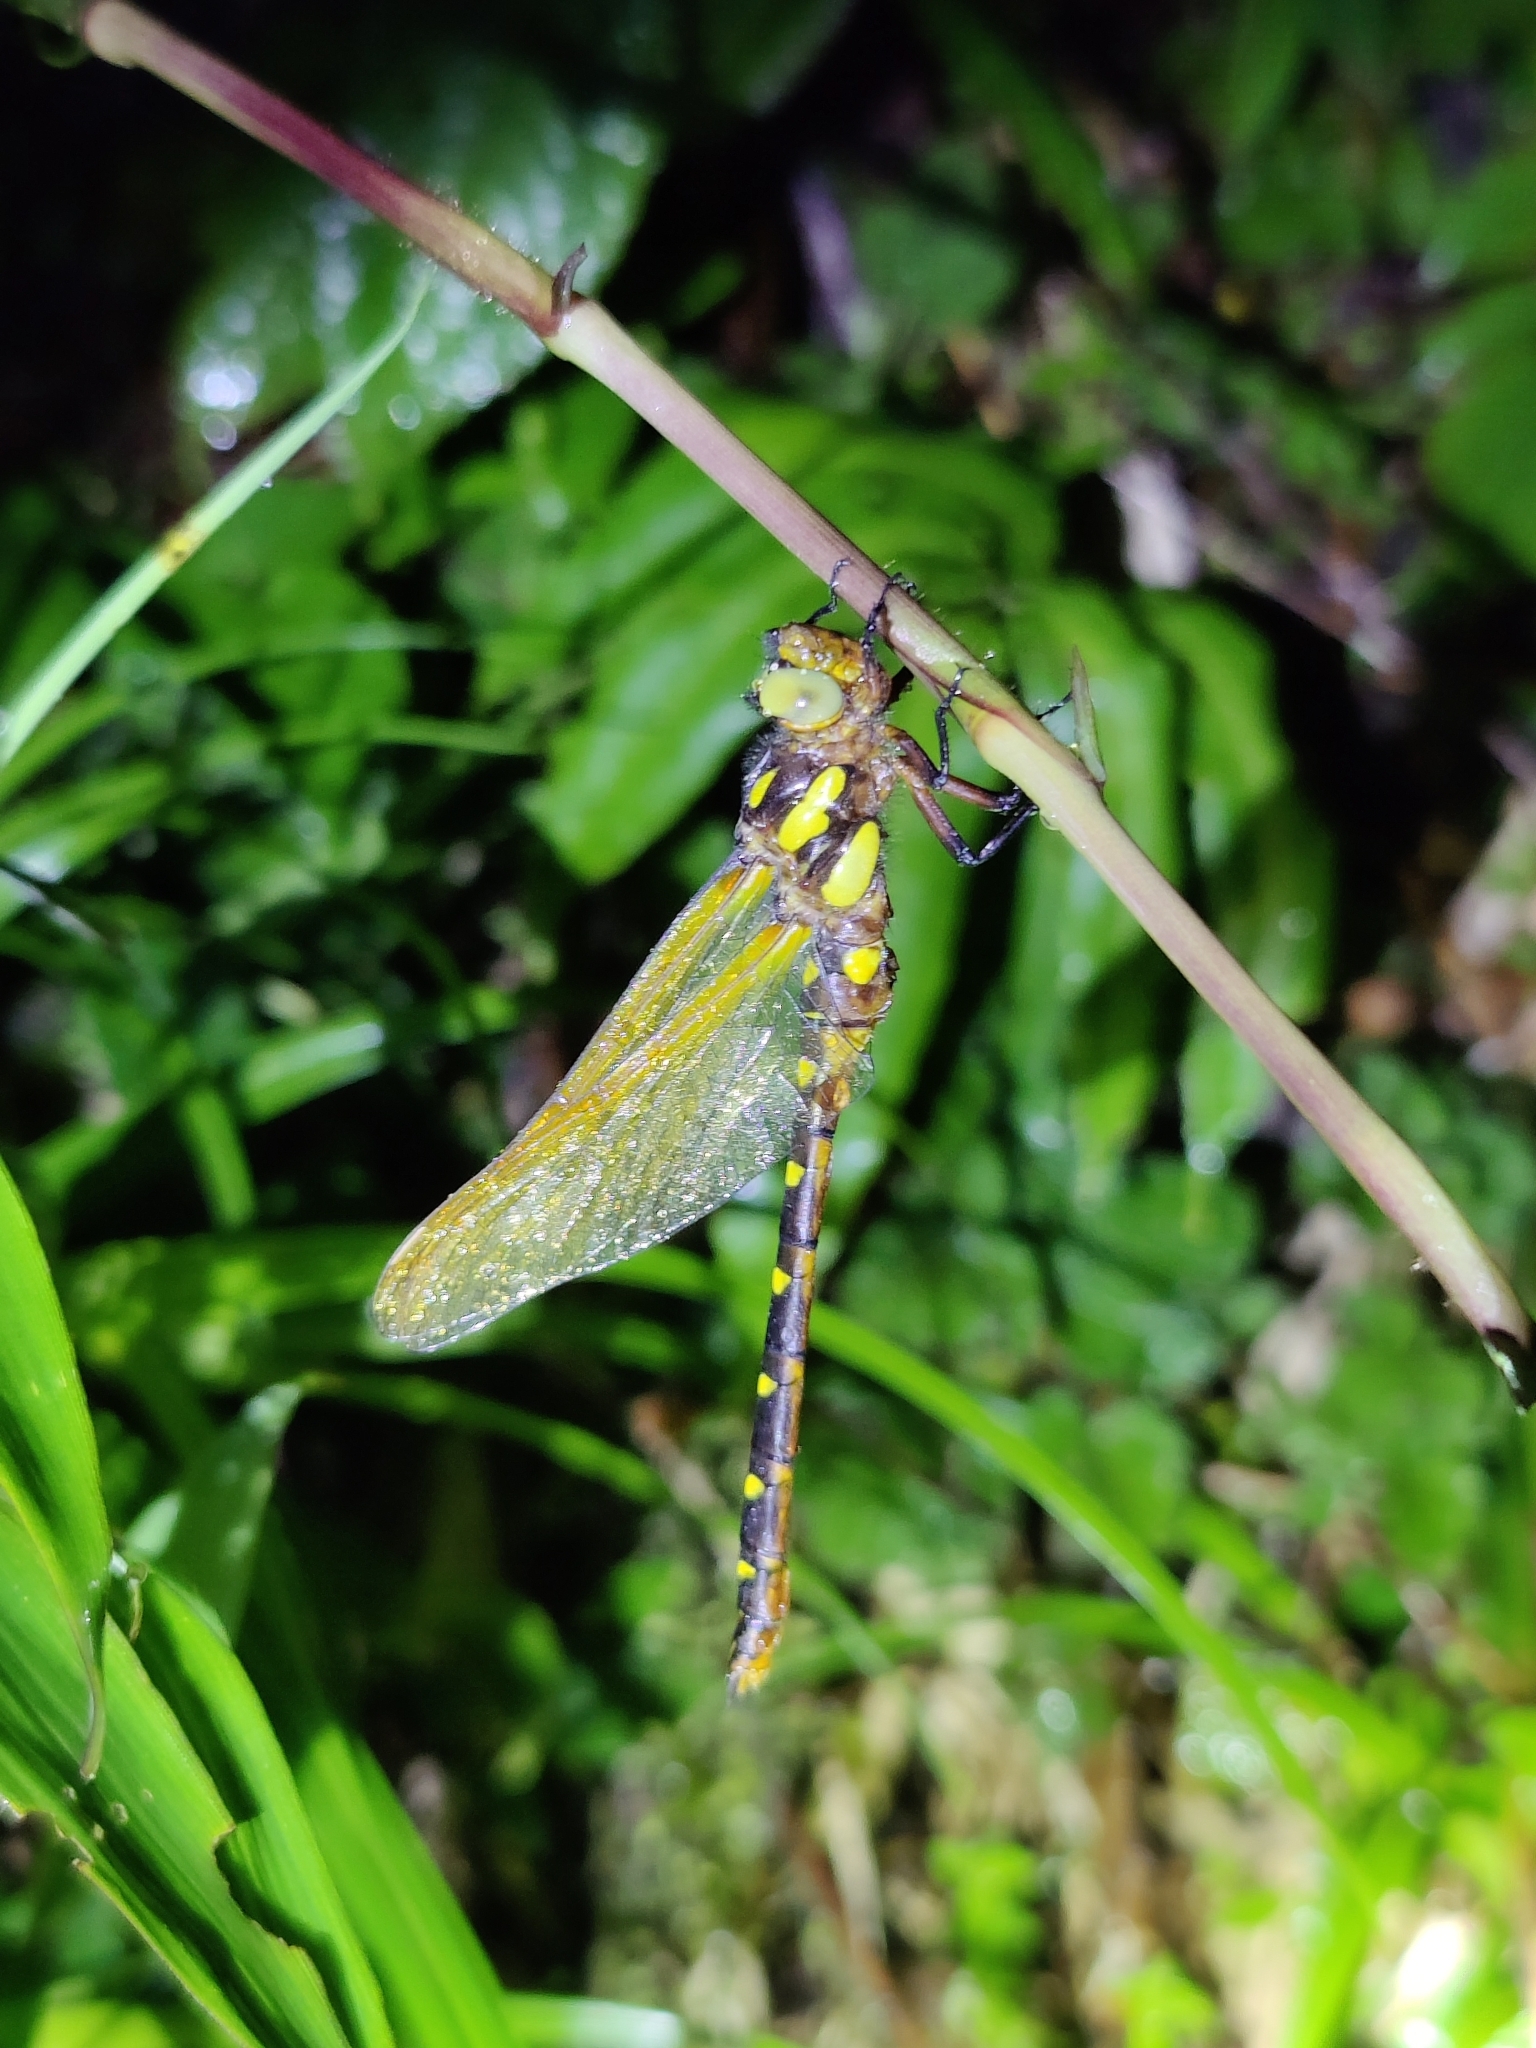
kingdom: Animalia
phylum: Arthropoda
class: Insecta
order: Odonata
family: Cordulegastridae
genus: Neallogaster
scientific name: Neallogaster hermionae
